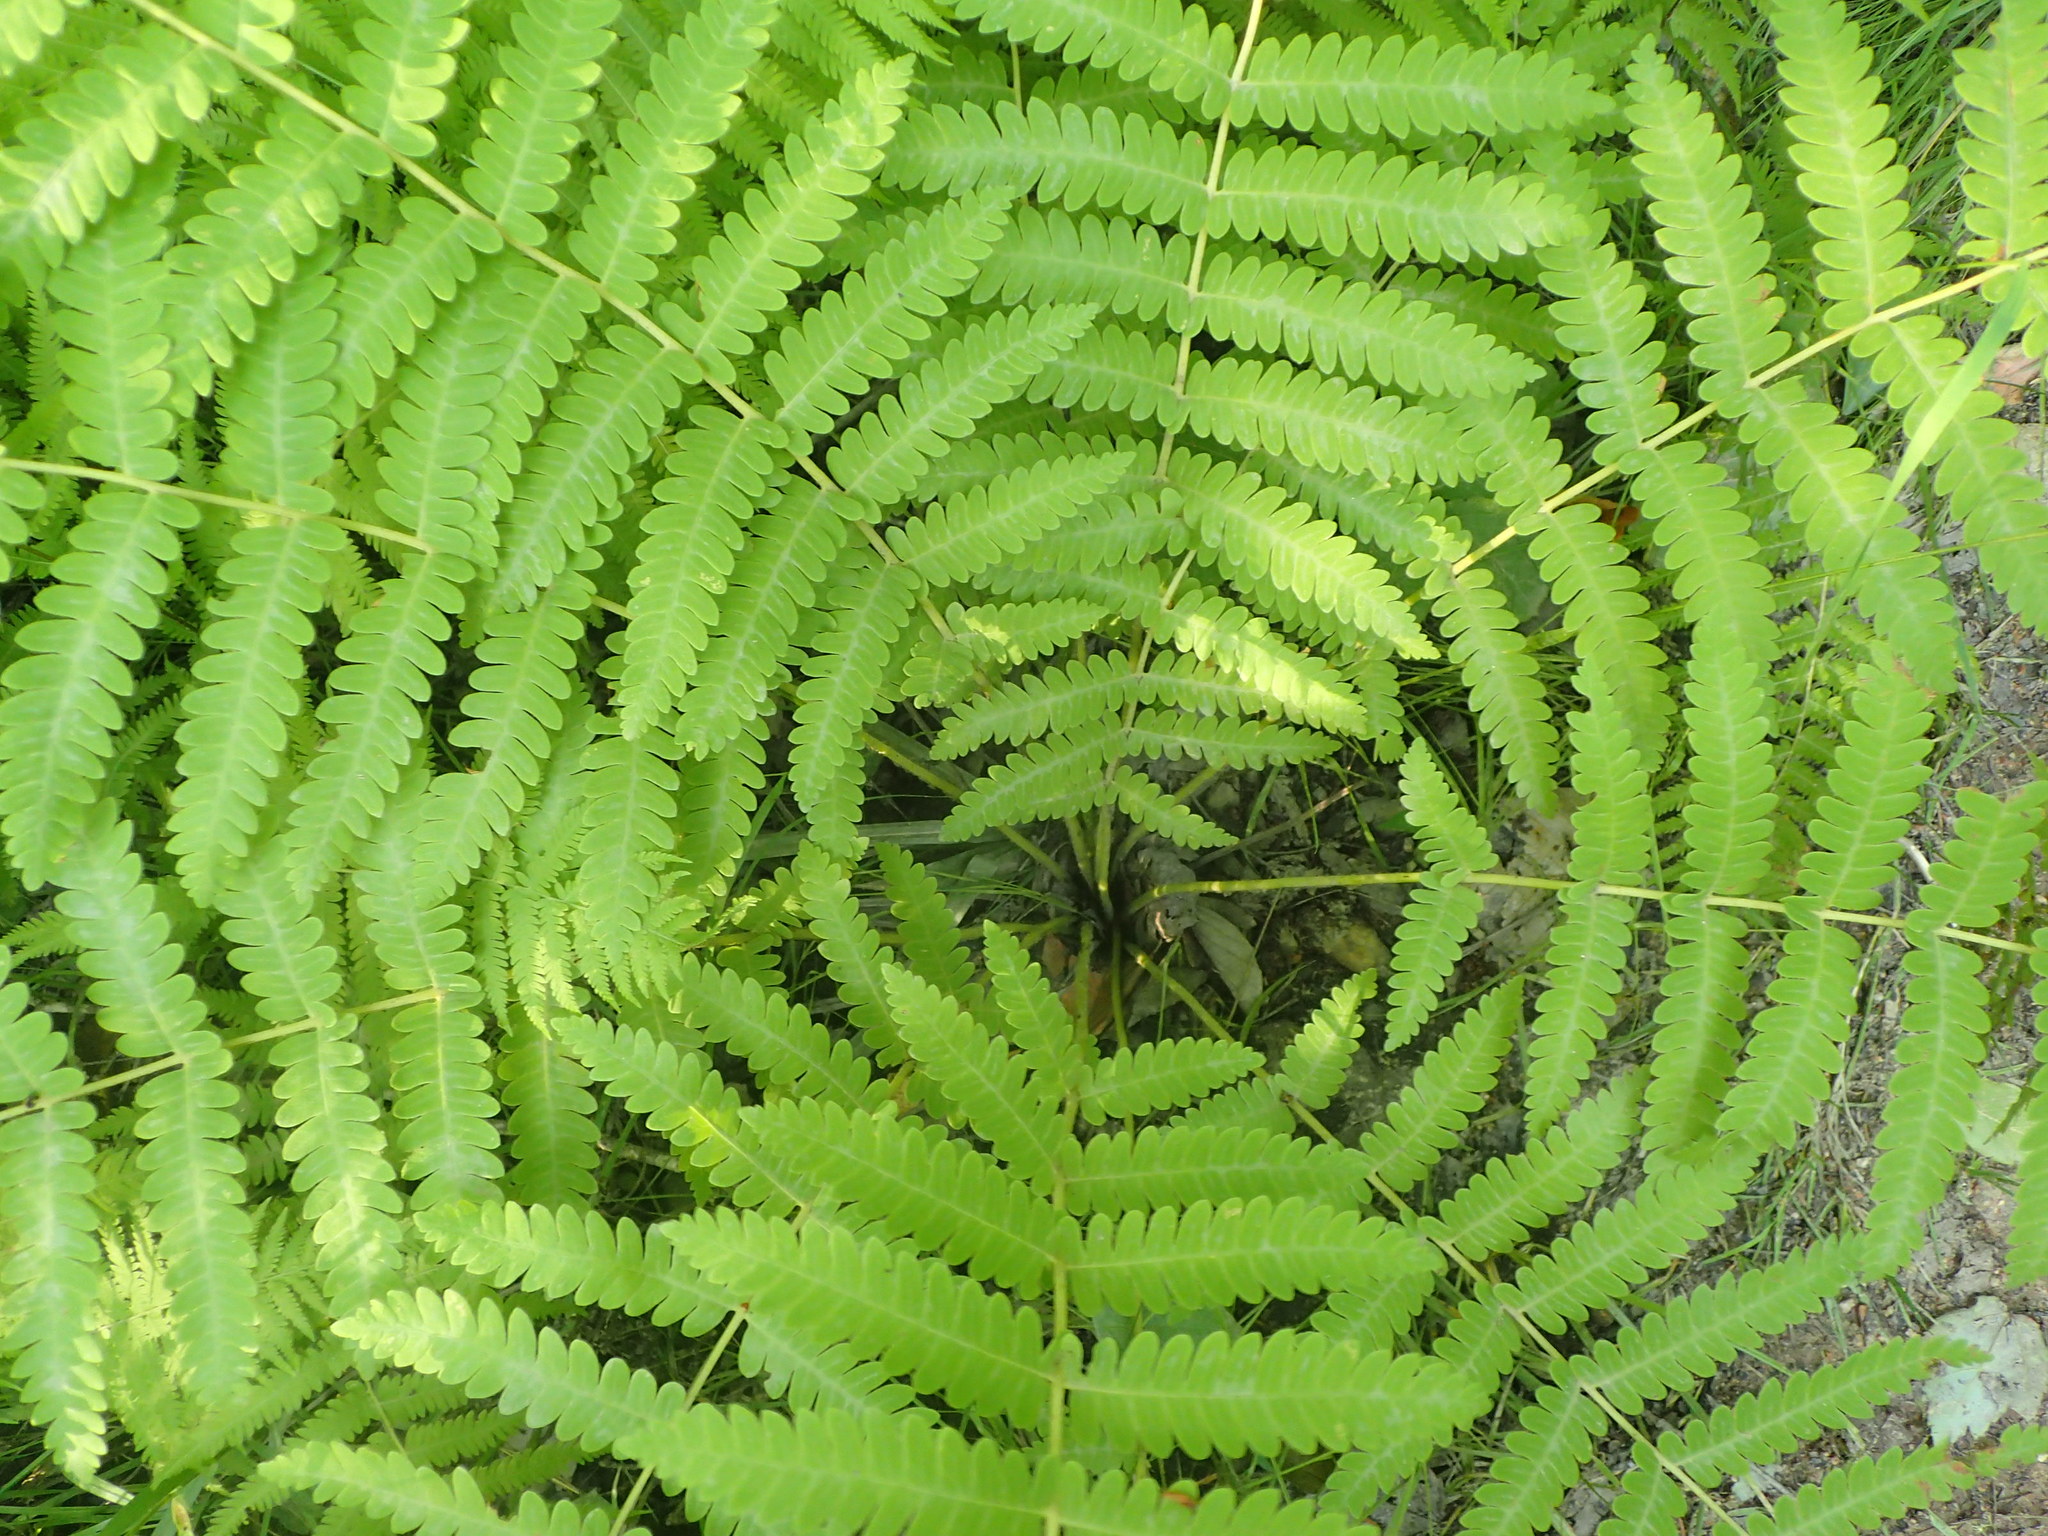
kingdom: Plantae
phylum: Tracheophyta
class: Polypodiopsida
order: Osmundales
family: Osmundaceae
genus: Osmundastrum
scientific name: Osmundastrum cinnamomeum
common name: Cinnamon fern
